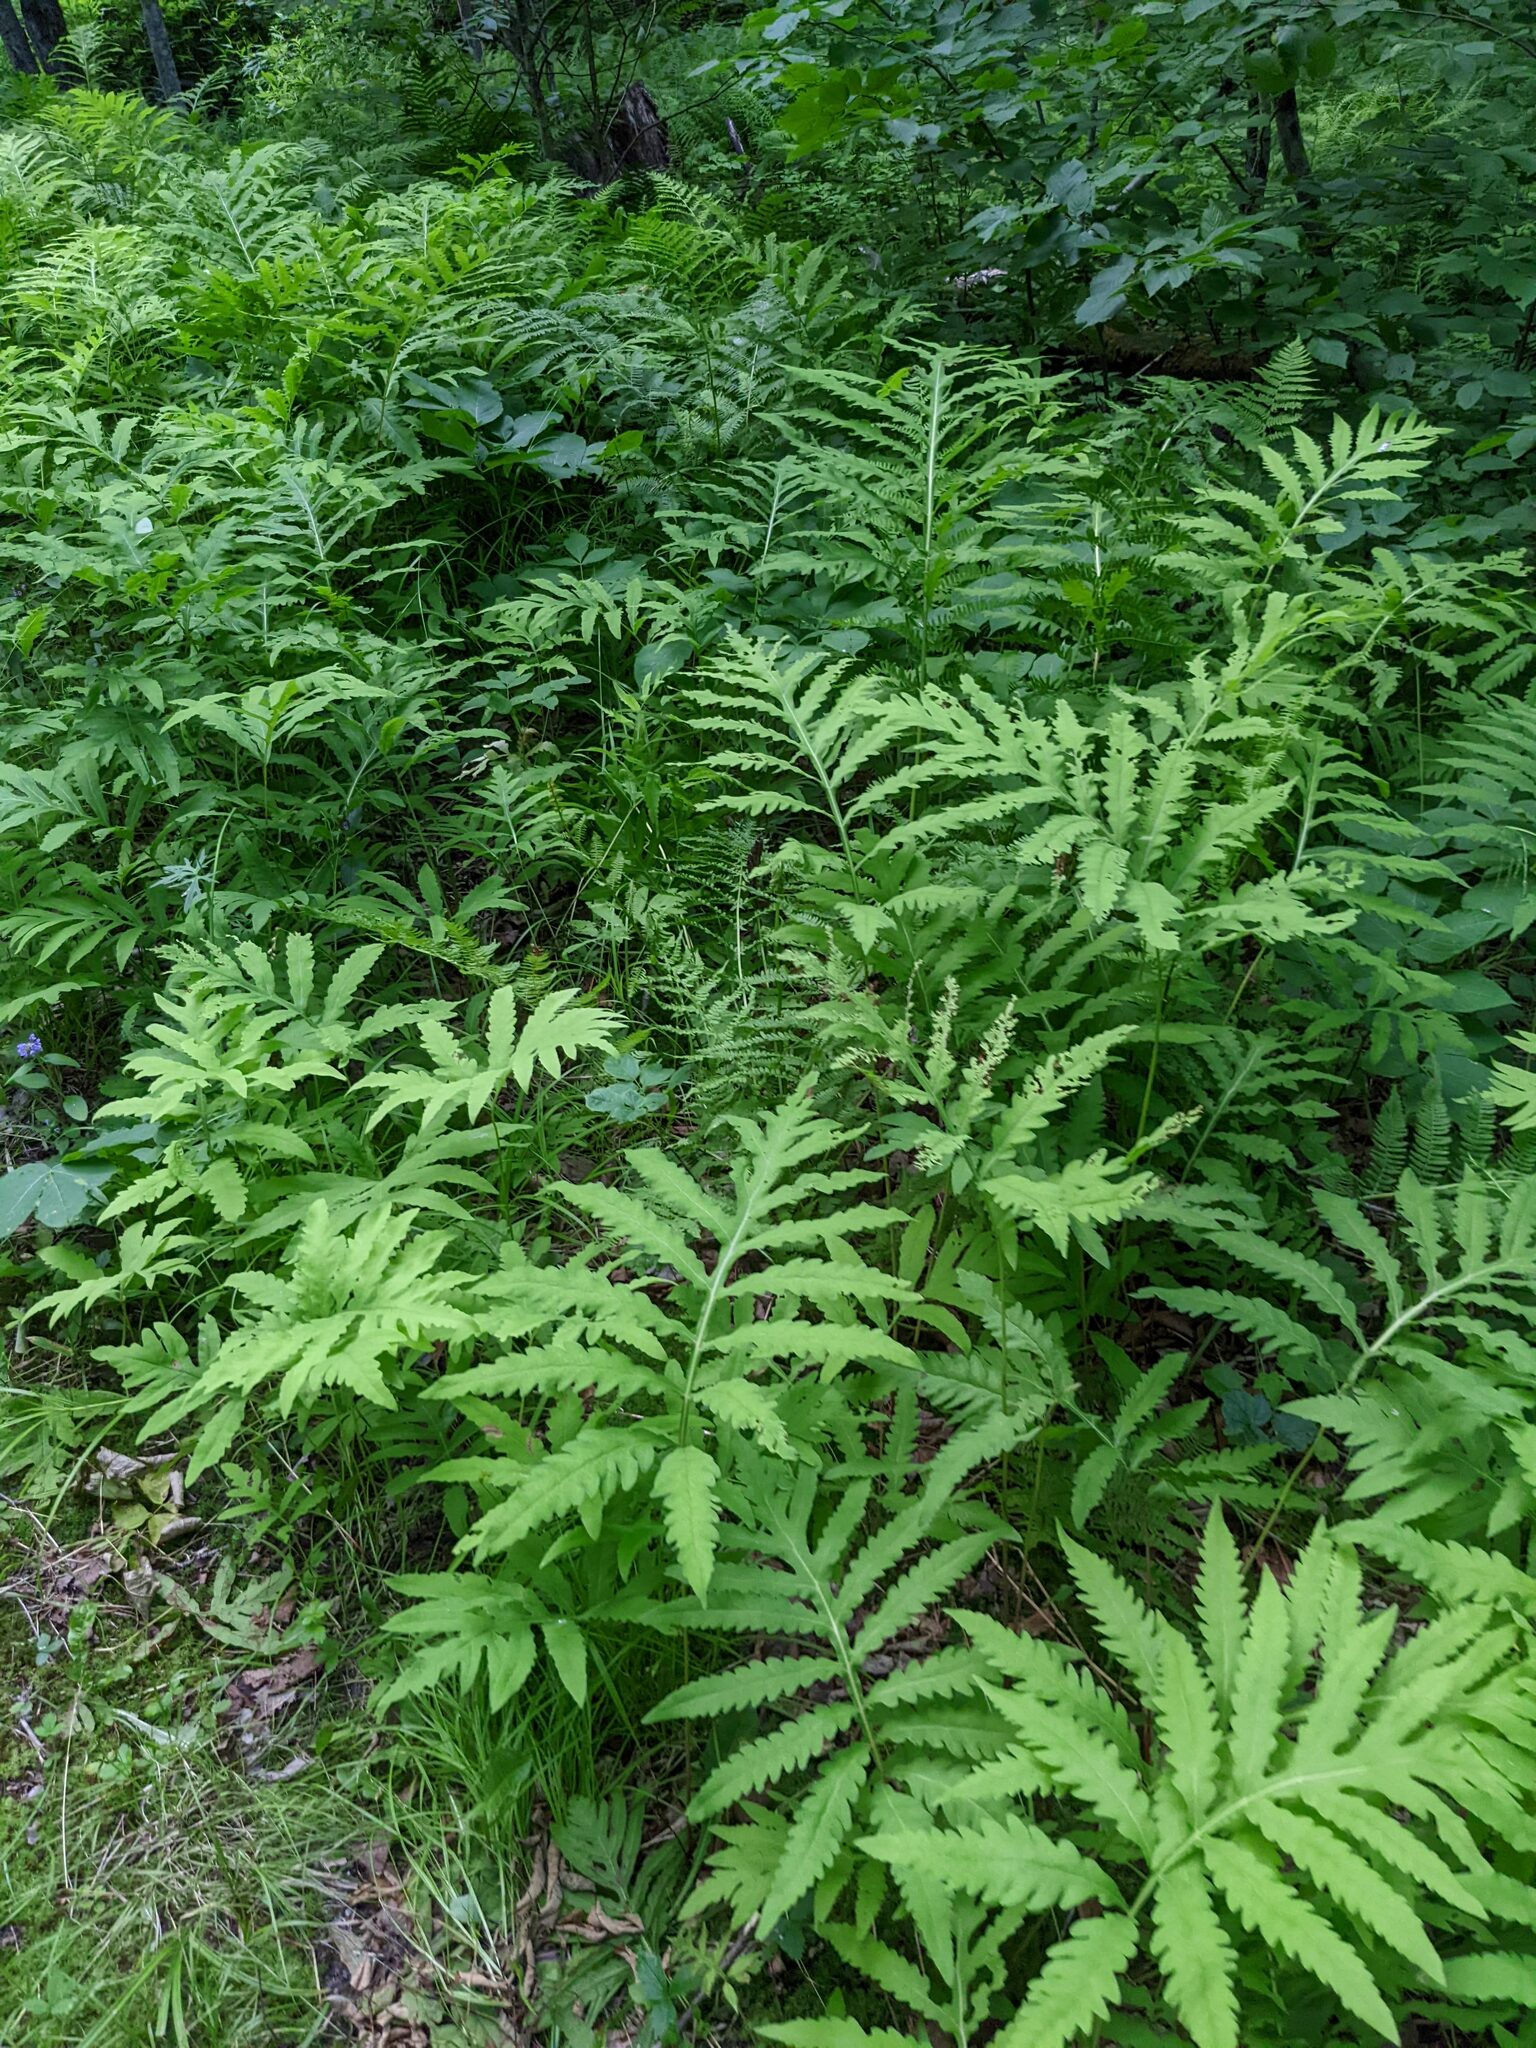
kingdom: Plantae
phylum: Tracheophyta
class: Polypodiopsida
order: Polypodiales
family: Onocleaceae
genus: Onoclea
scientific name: Onoclea sensibilis
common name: Sensitive fern
